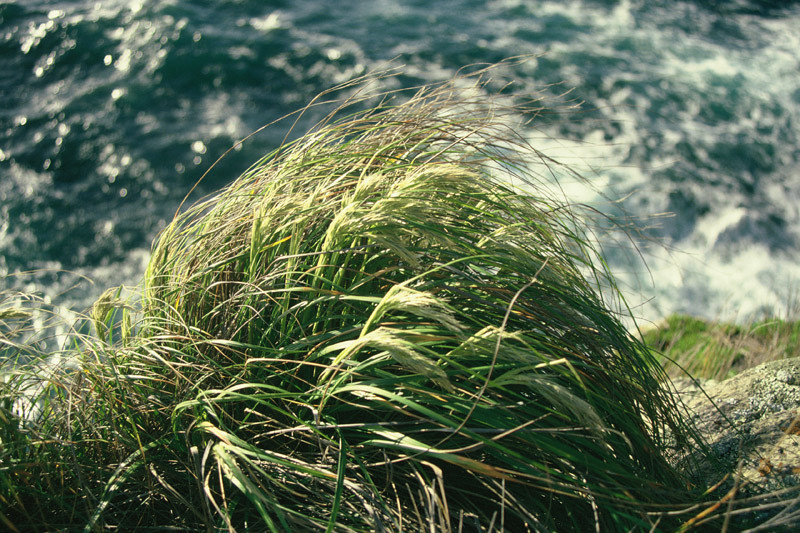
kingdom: Plantae
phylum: Tracheophyta
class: Liliopsida
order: Poales
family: Poaceae
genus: Chionochloa
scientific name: Chionochloa bromoides
